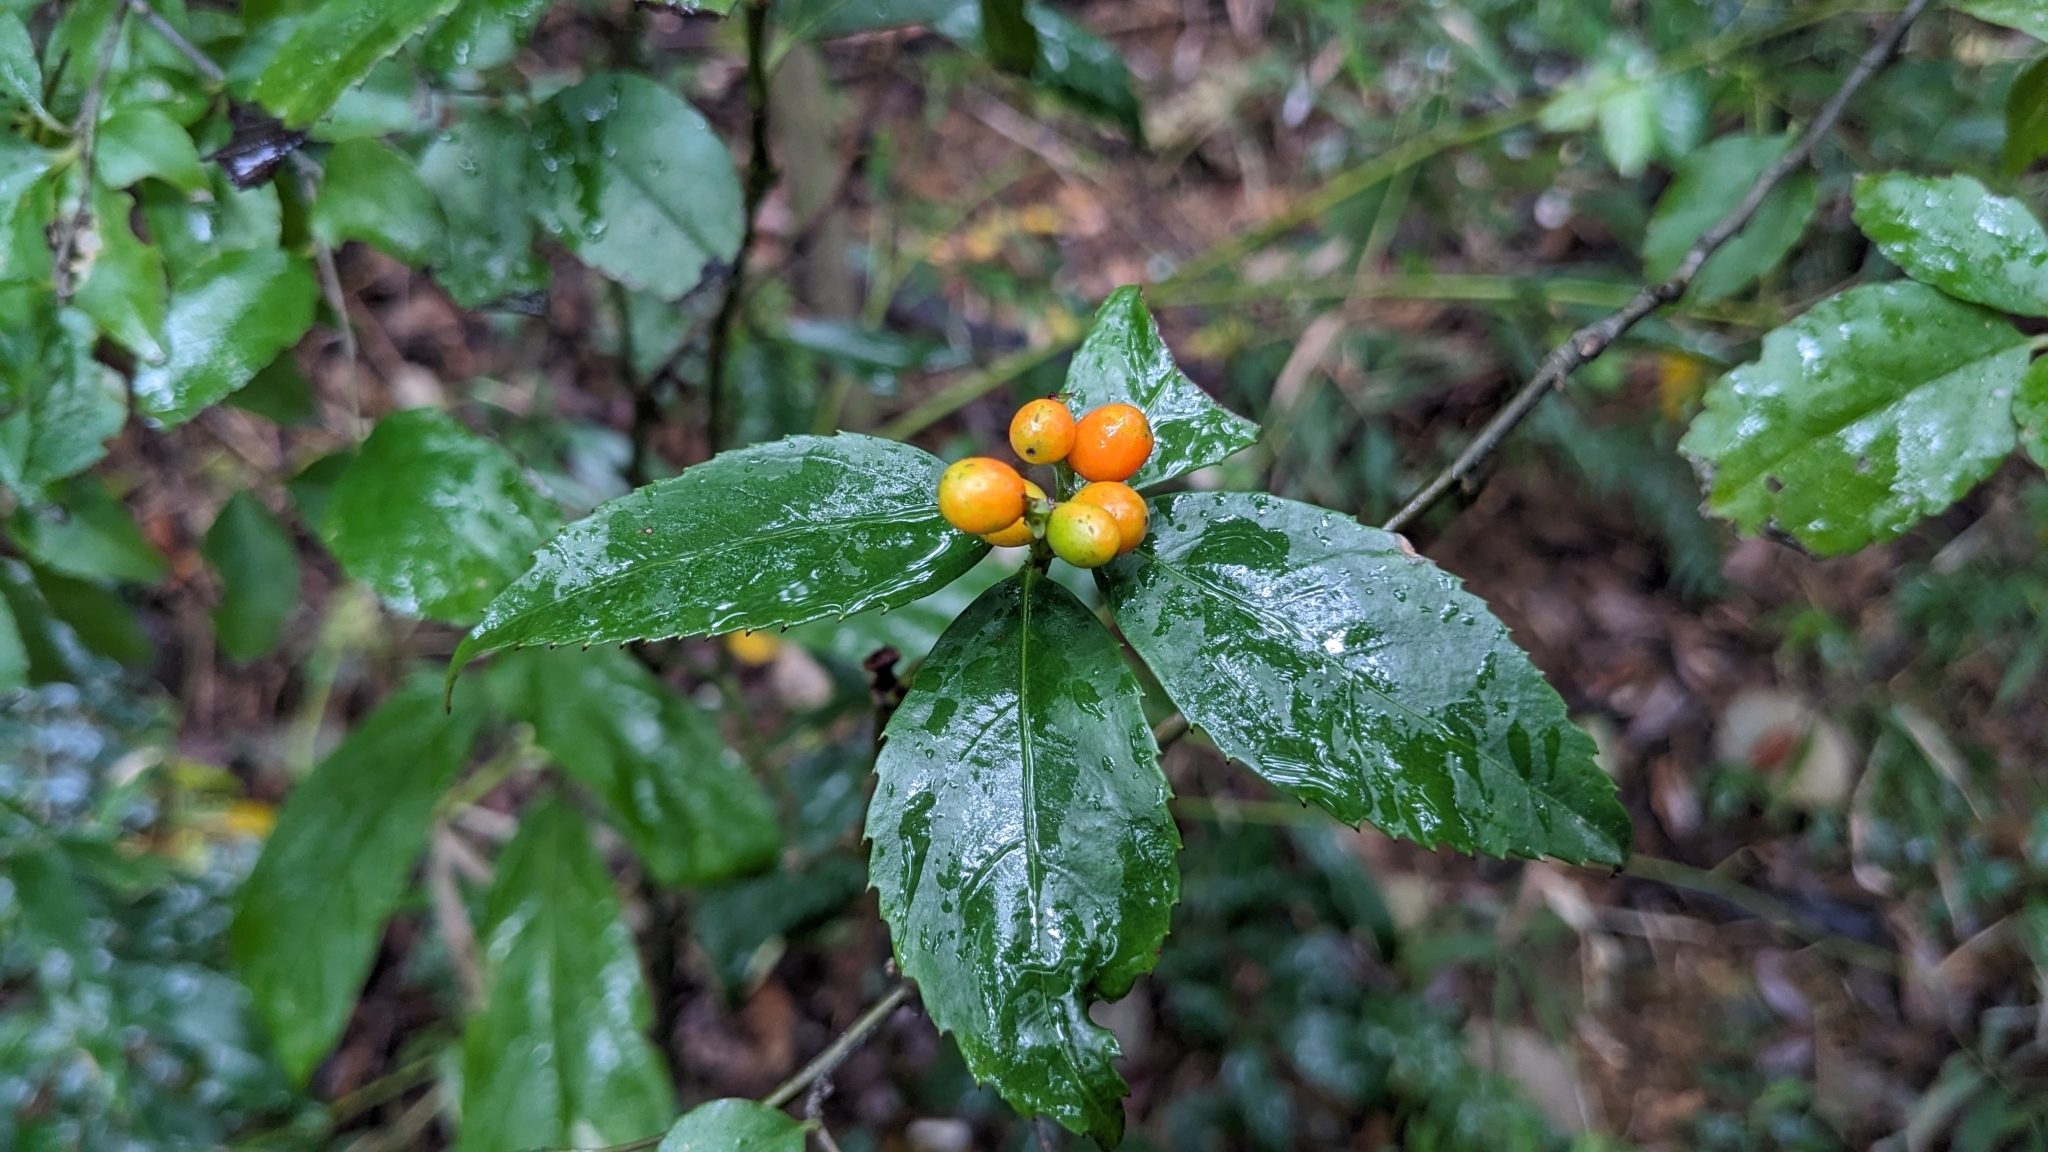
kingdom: Plantae
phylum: Tracheophyta
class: Magnoliopsida
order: Chloranthales
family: Chloranthaceae
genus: Sarcandra
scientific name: Sarcandra glabra
